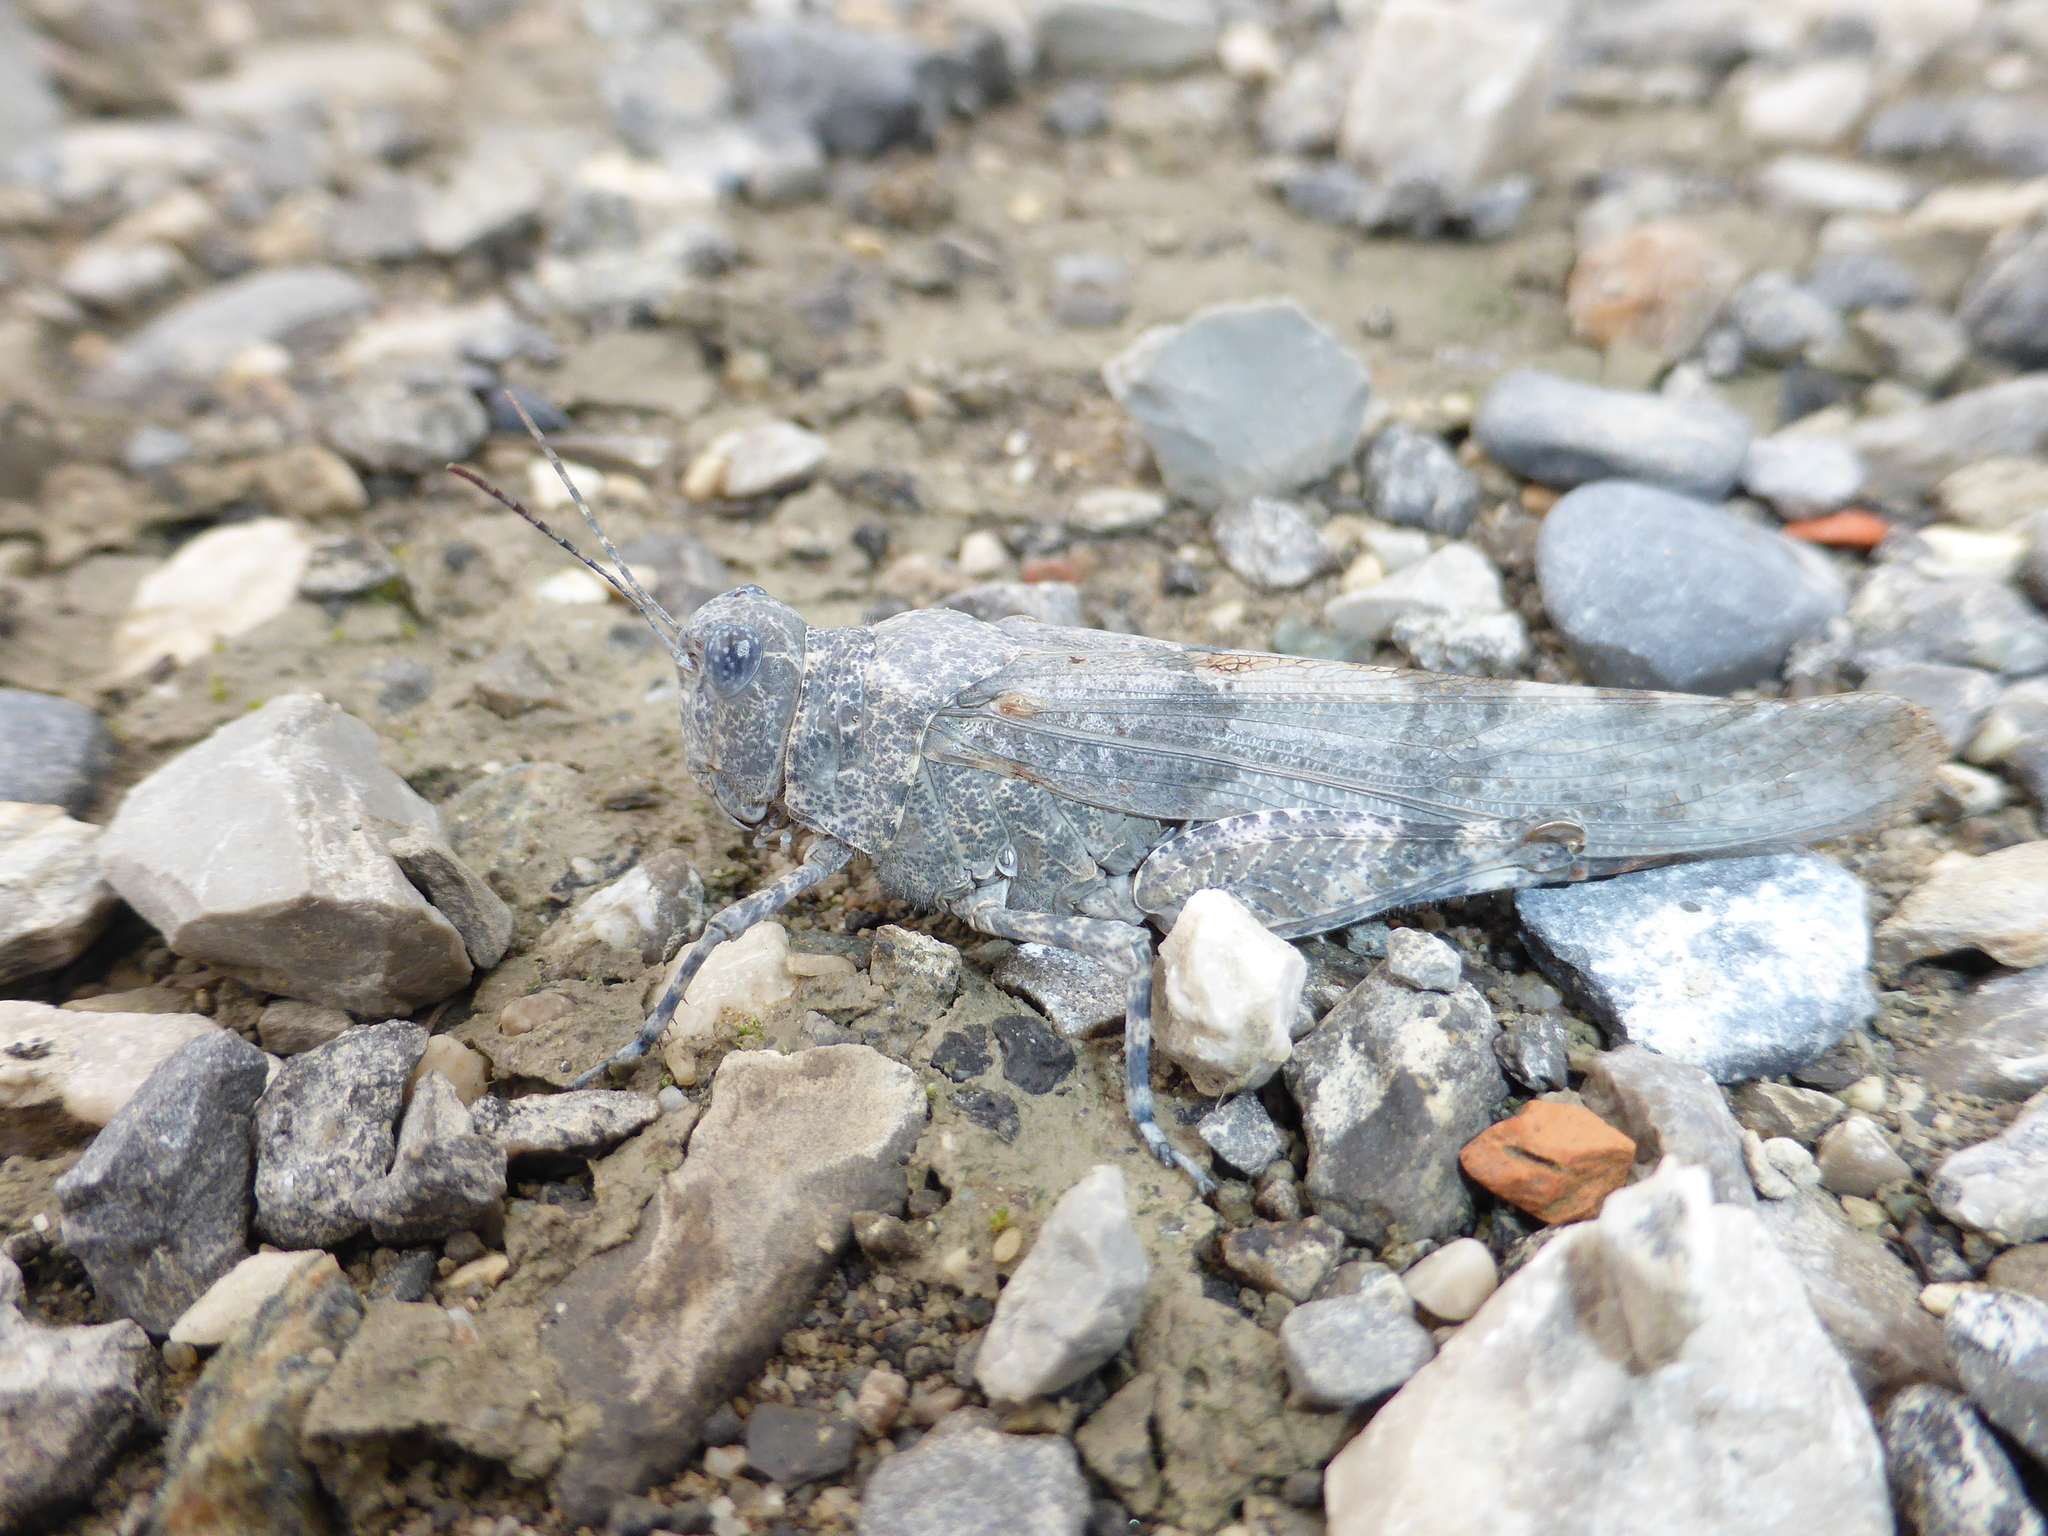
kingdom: Animalia
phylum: Arthropoda
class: Insecta
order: Orthoptera
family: Acrididae
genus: Sphingonotus
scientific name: Sphingonotus caerulans
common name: Blue-winged locust
